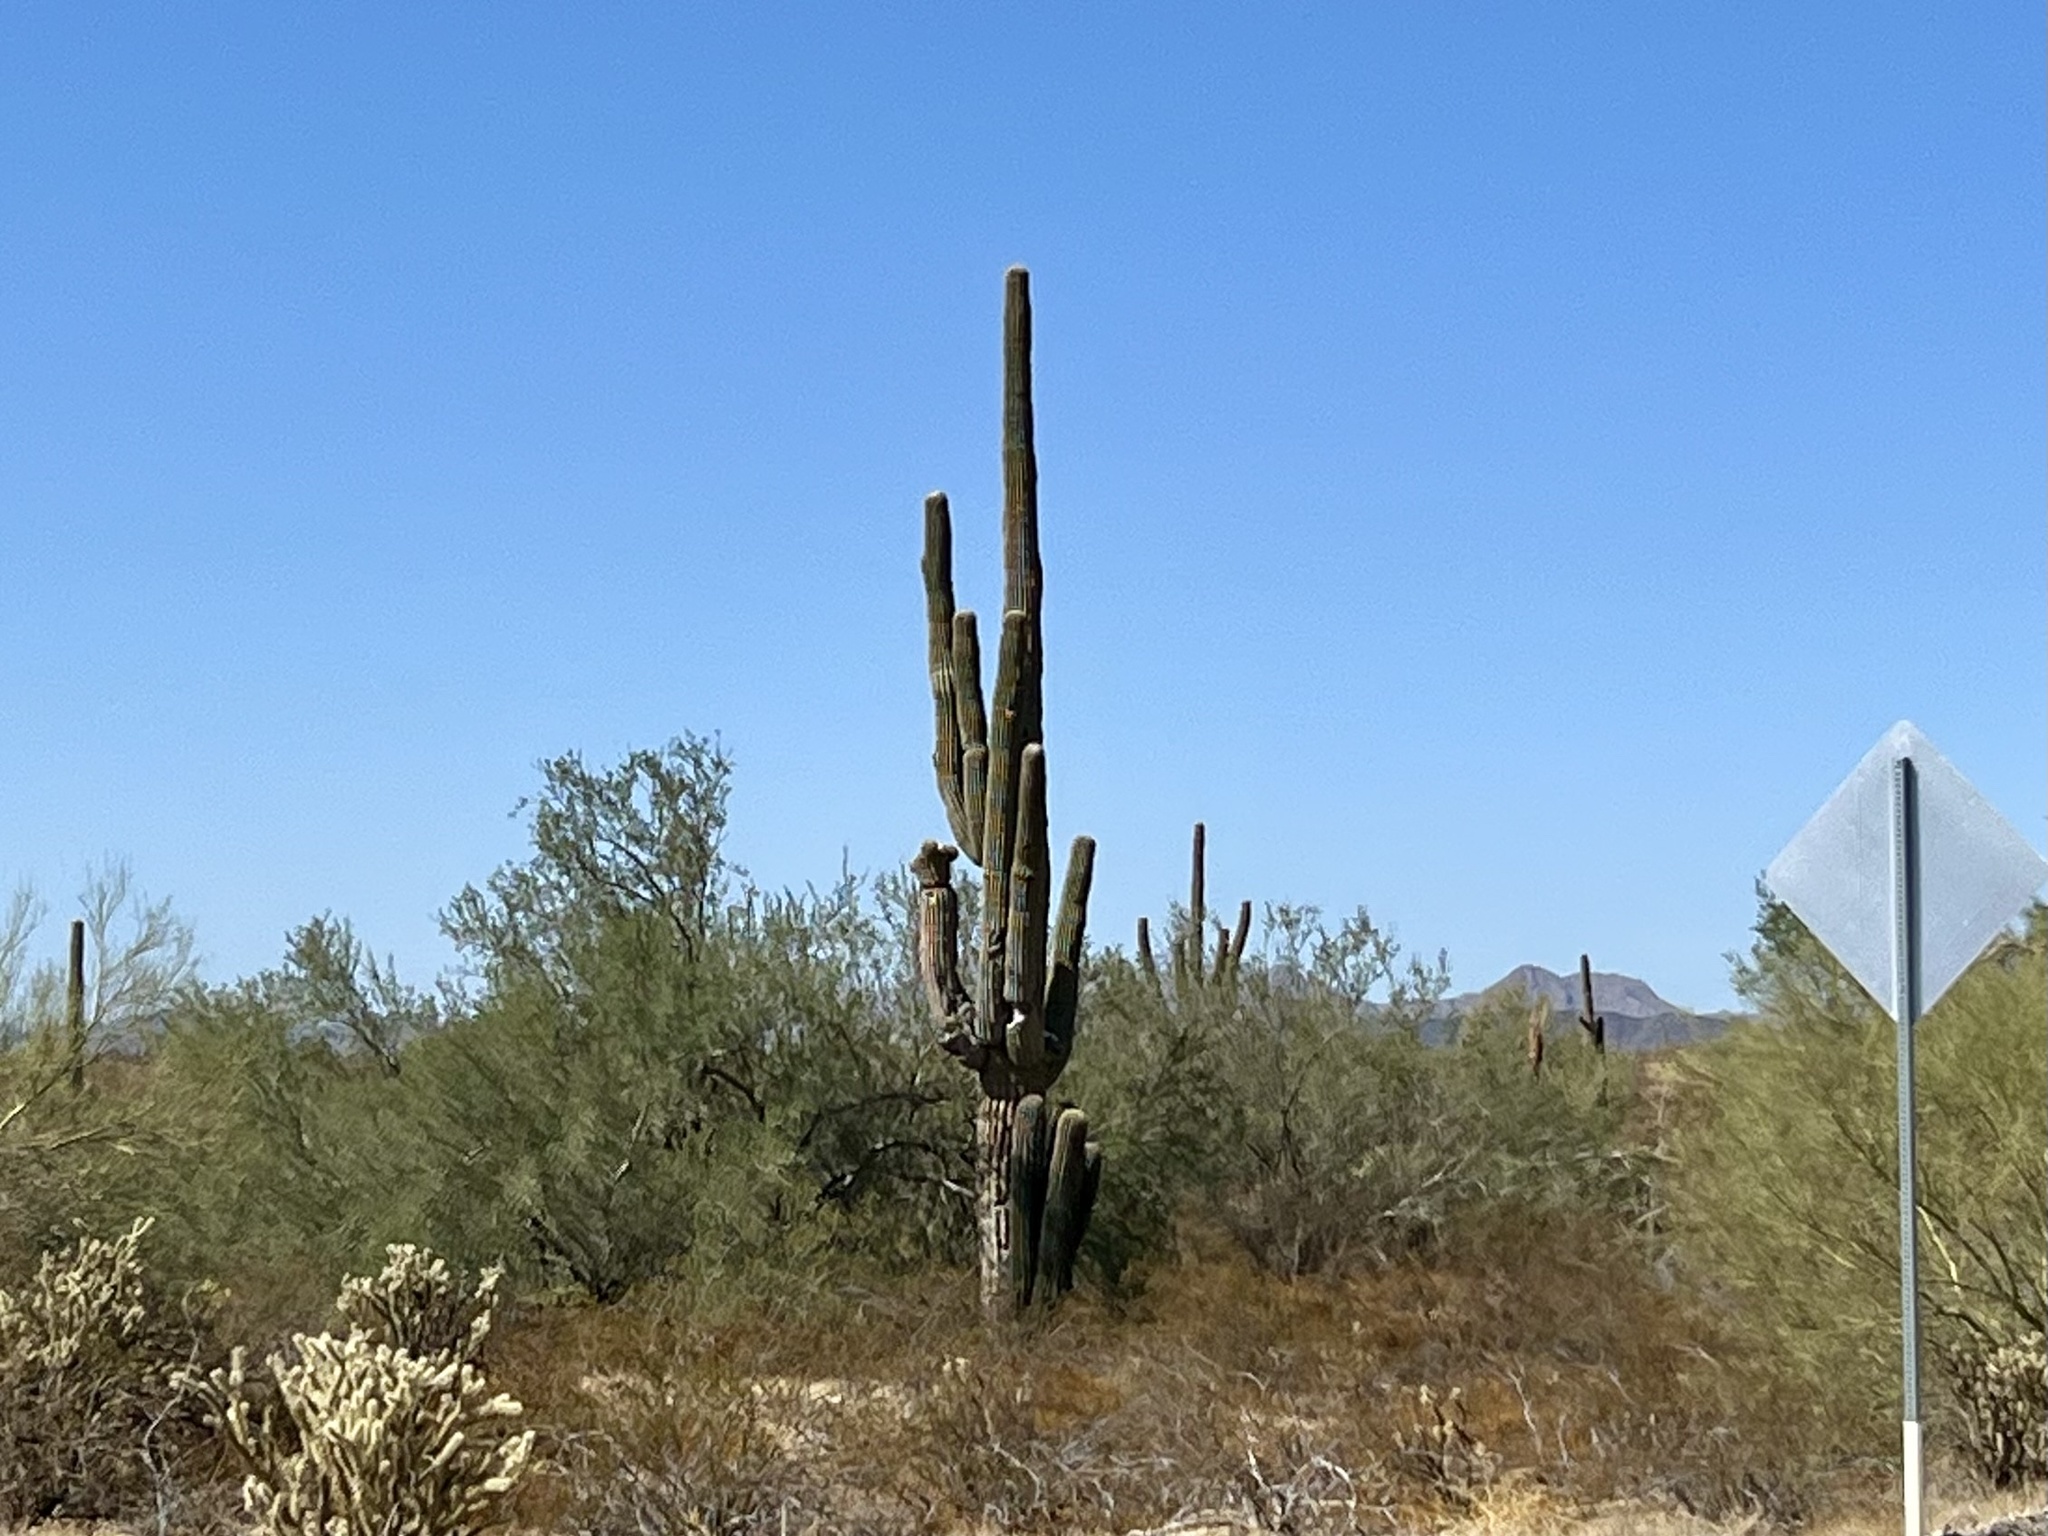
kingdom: Plantae
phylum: Tracheophyta
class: Magnoliopsida
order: Caryophyllales
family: Cactaceae
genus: Carnegiea
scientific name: Carnegiea gigantea
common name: Saguaro
